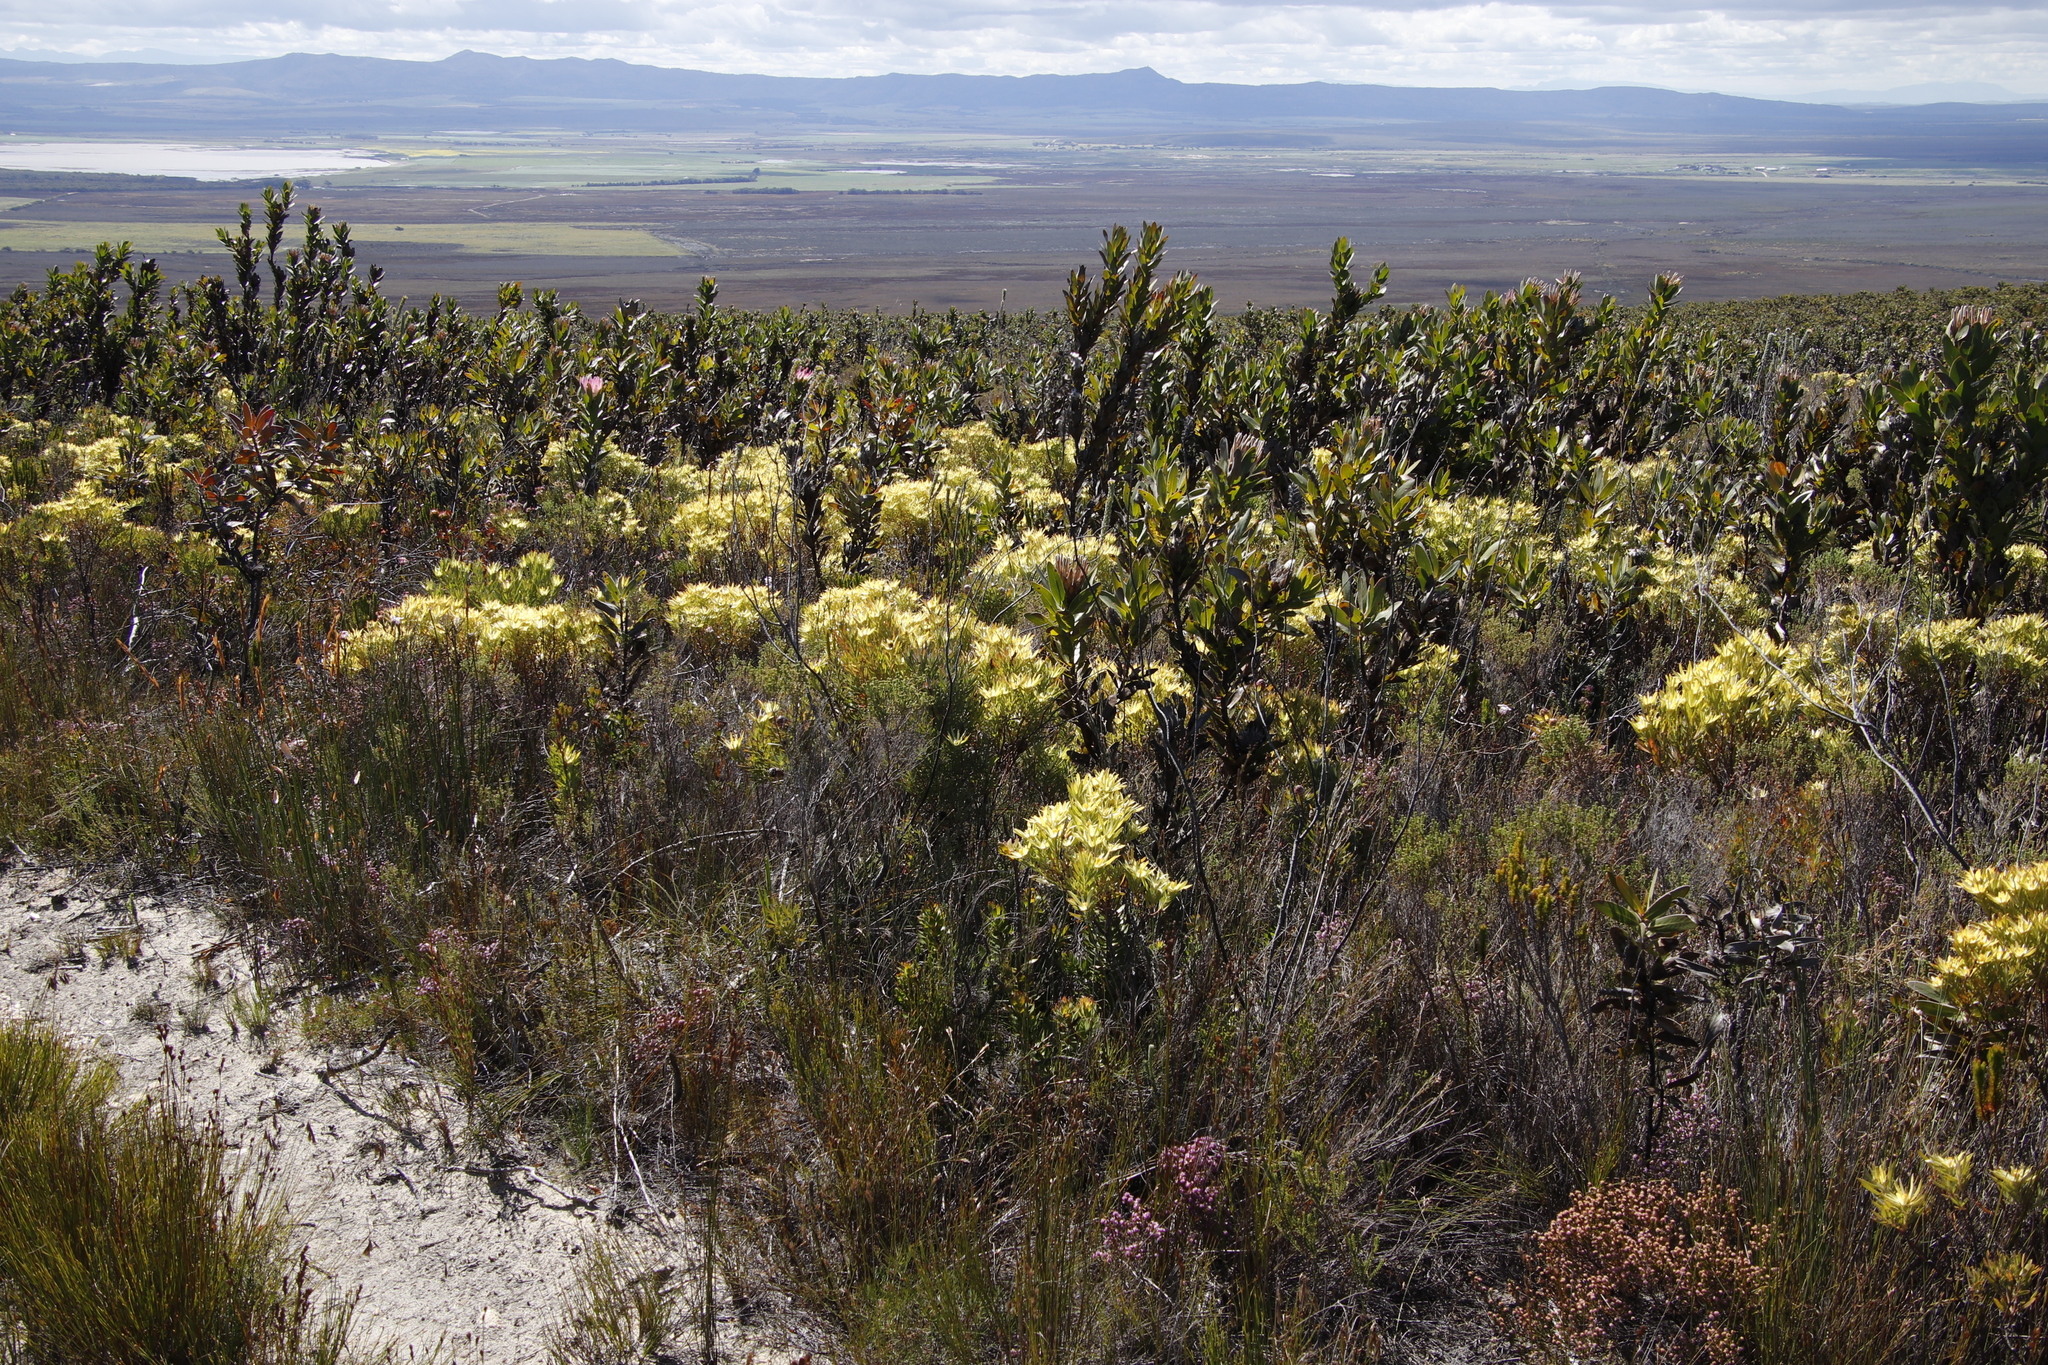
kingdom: Plantae
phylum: Tracheophyta
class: Magnoliopsida
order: Proteales
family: Proteaceae
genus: Leucadendron
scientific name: Leucadendron xanthoconus
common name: Sickle-leaf conebush
